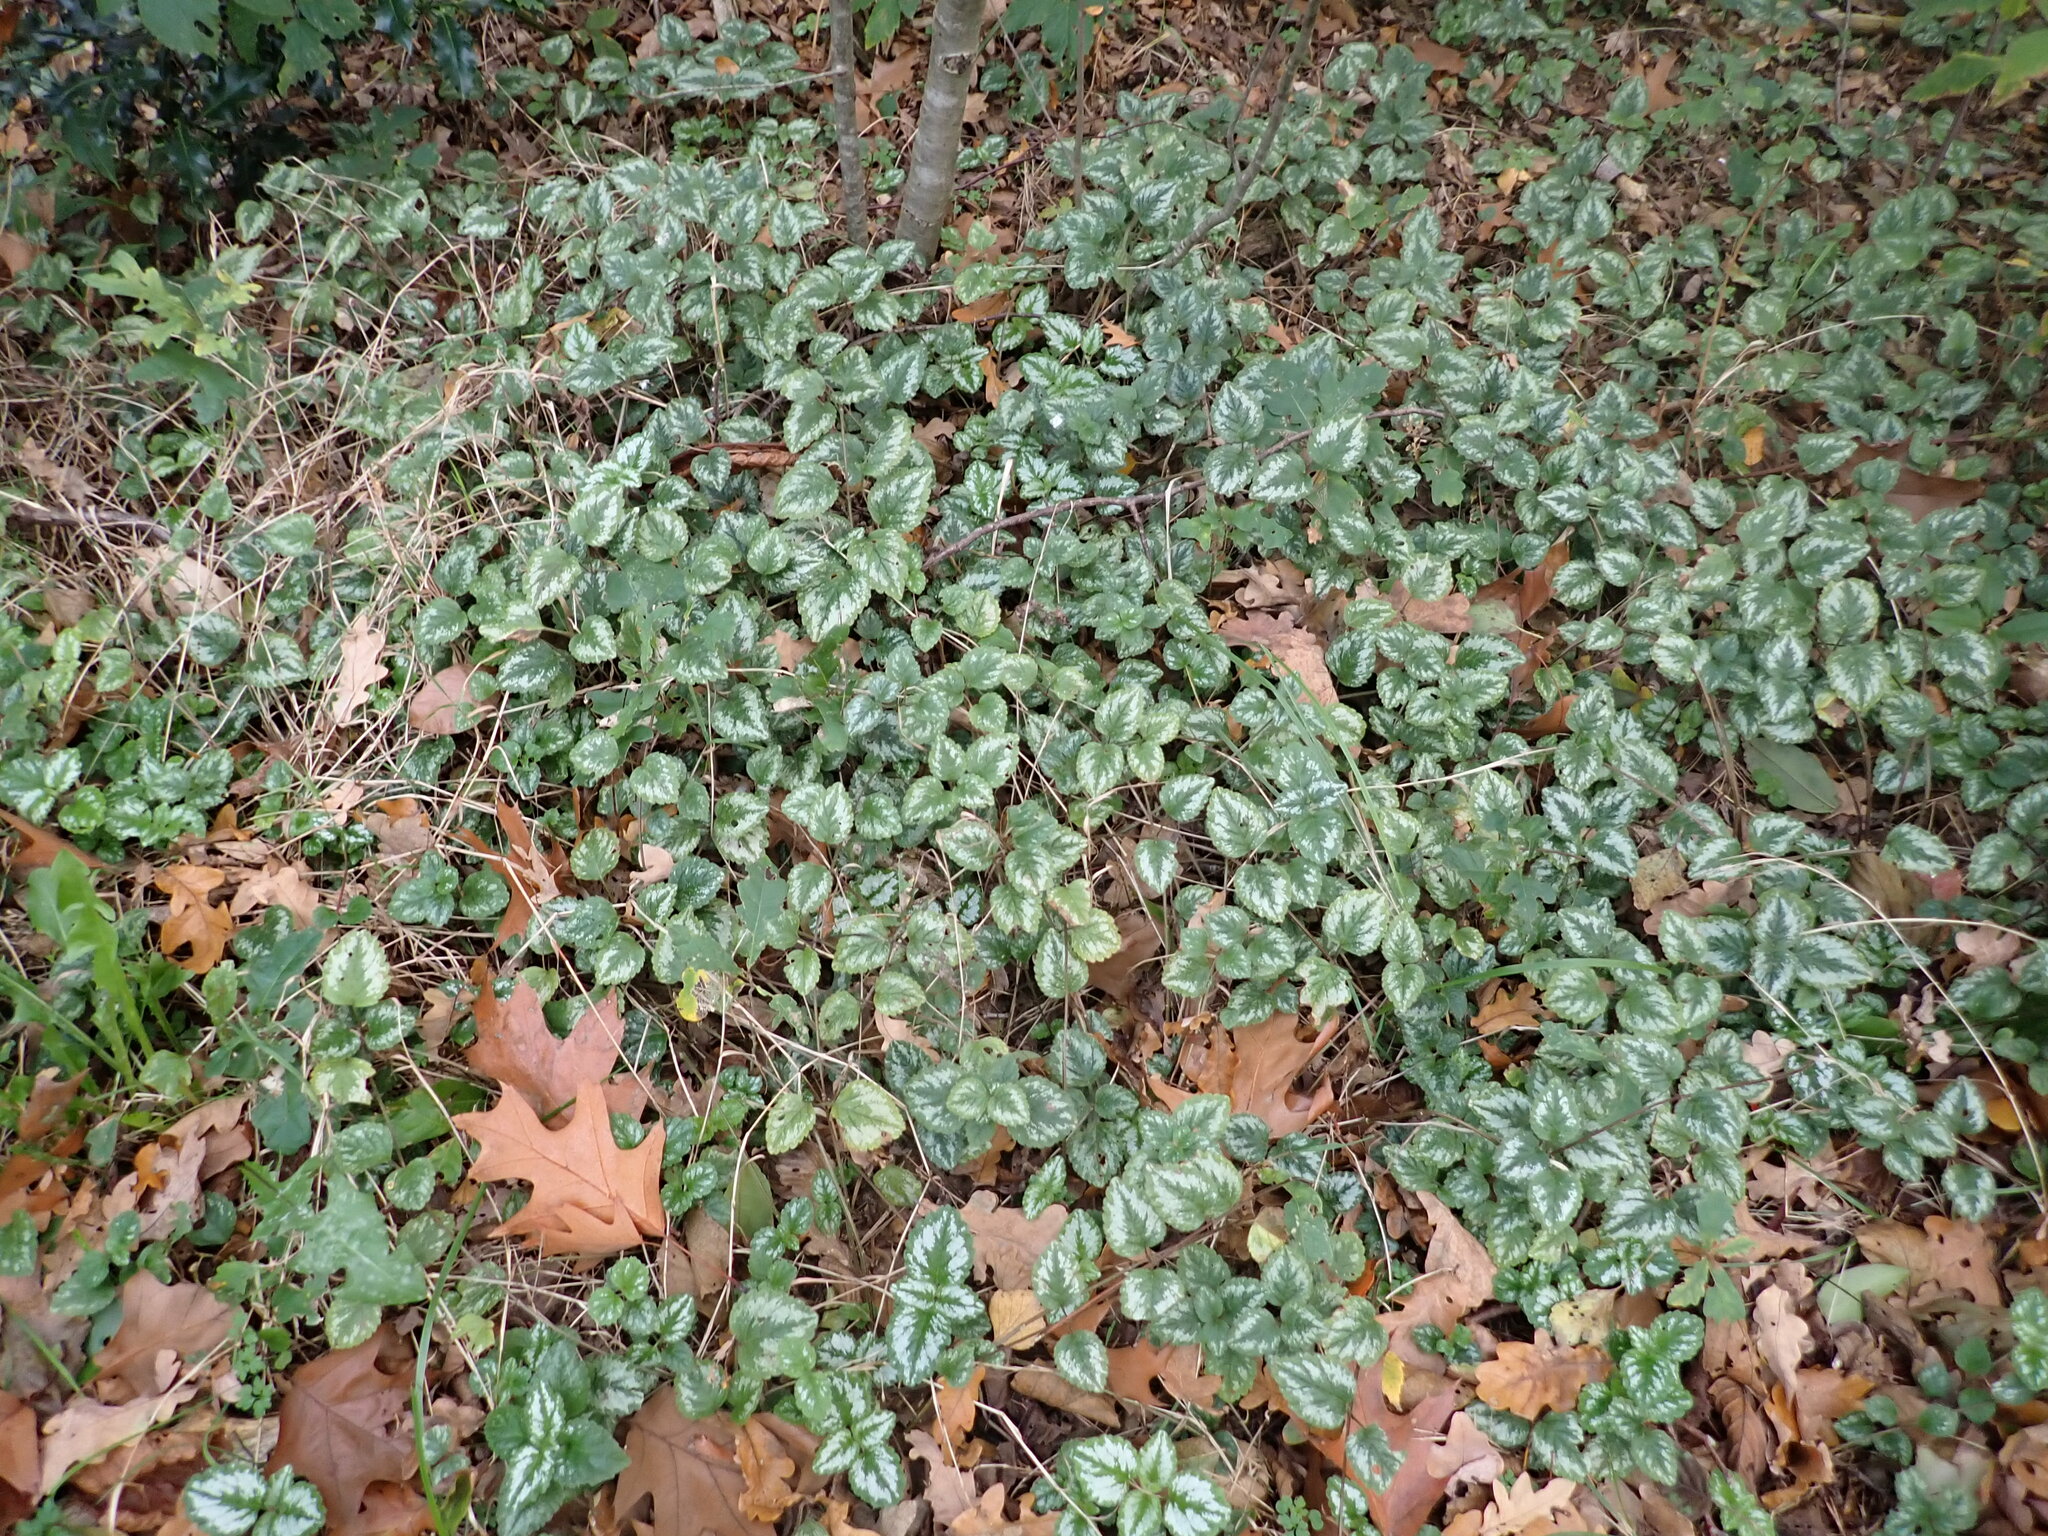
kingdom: Plantae
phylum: Tracheophyta
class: Magnoliopsida
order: Lamiales
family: Lamiaceae
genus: Lamium
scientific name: Lamium galeobdolon
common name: Yellow archangel
